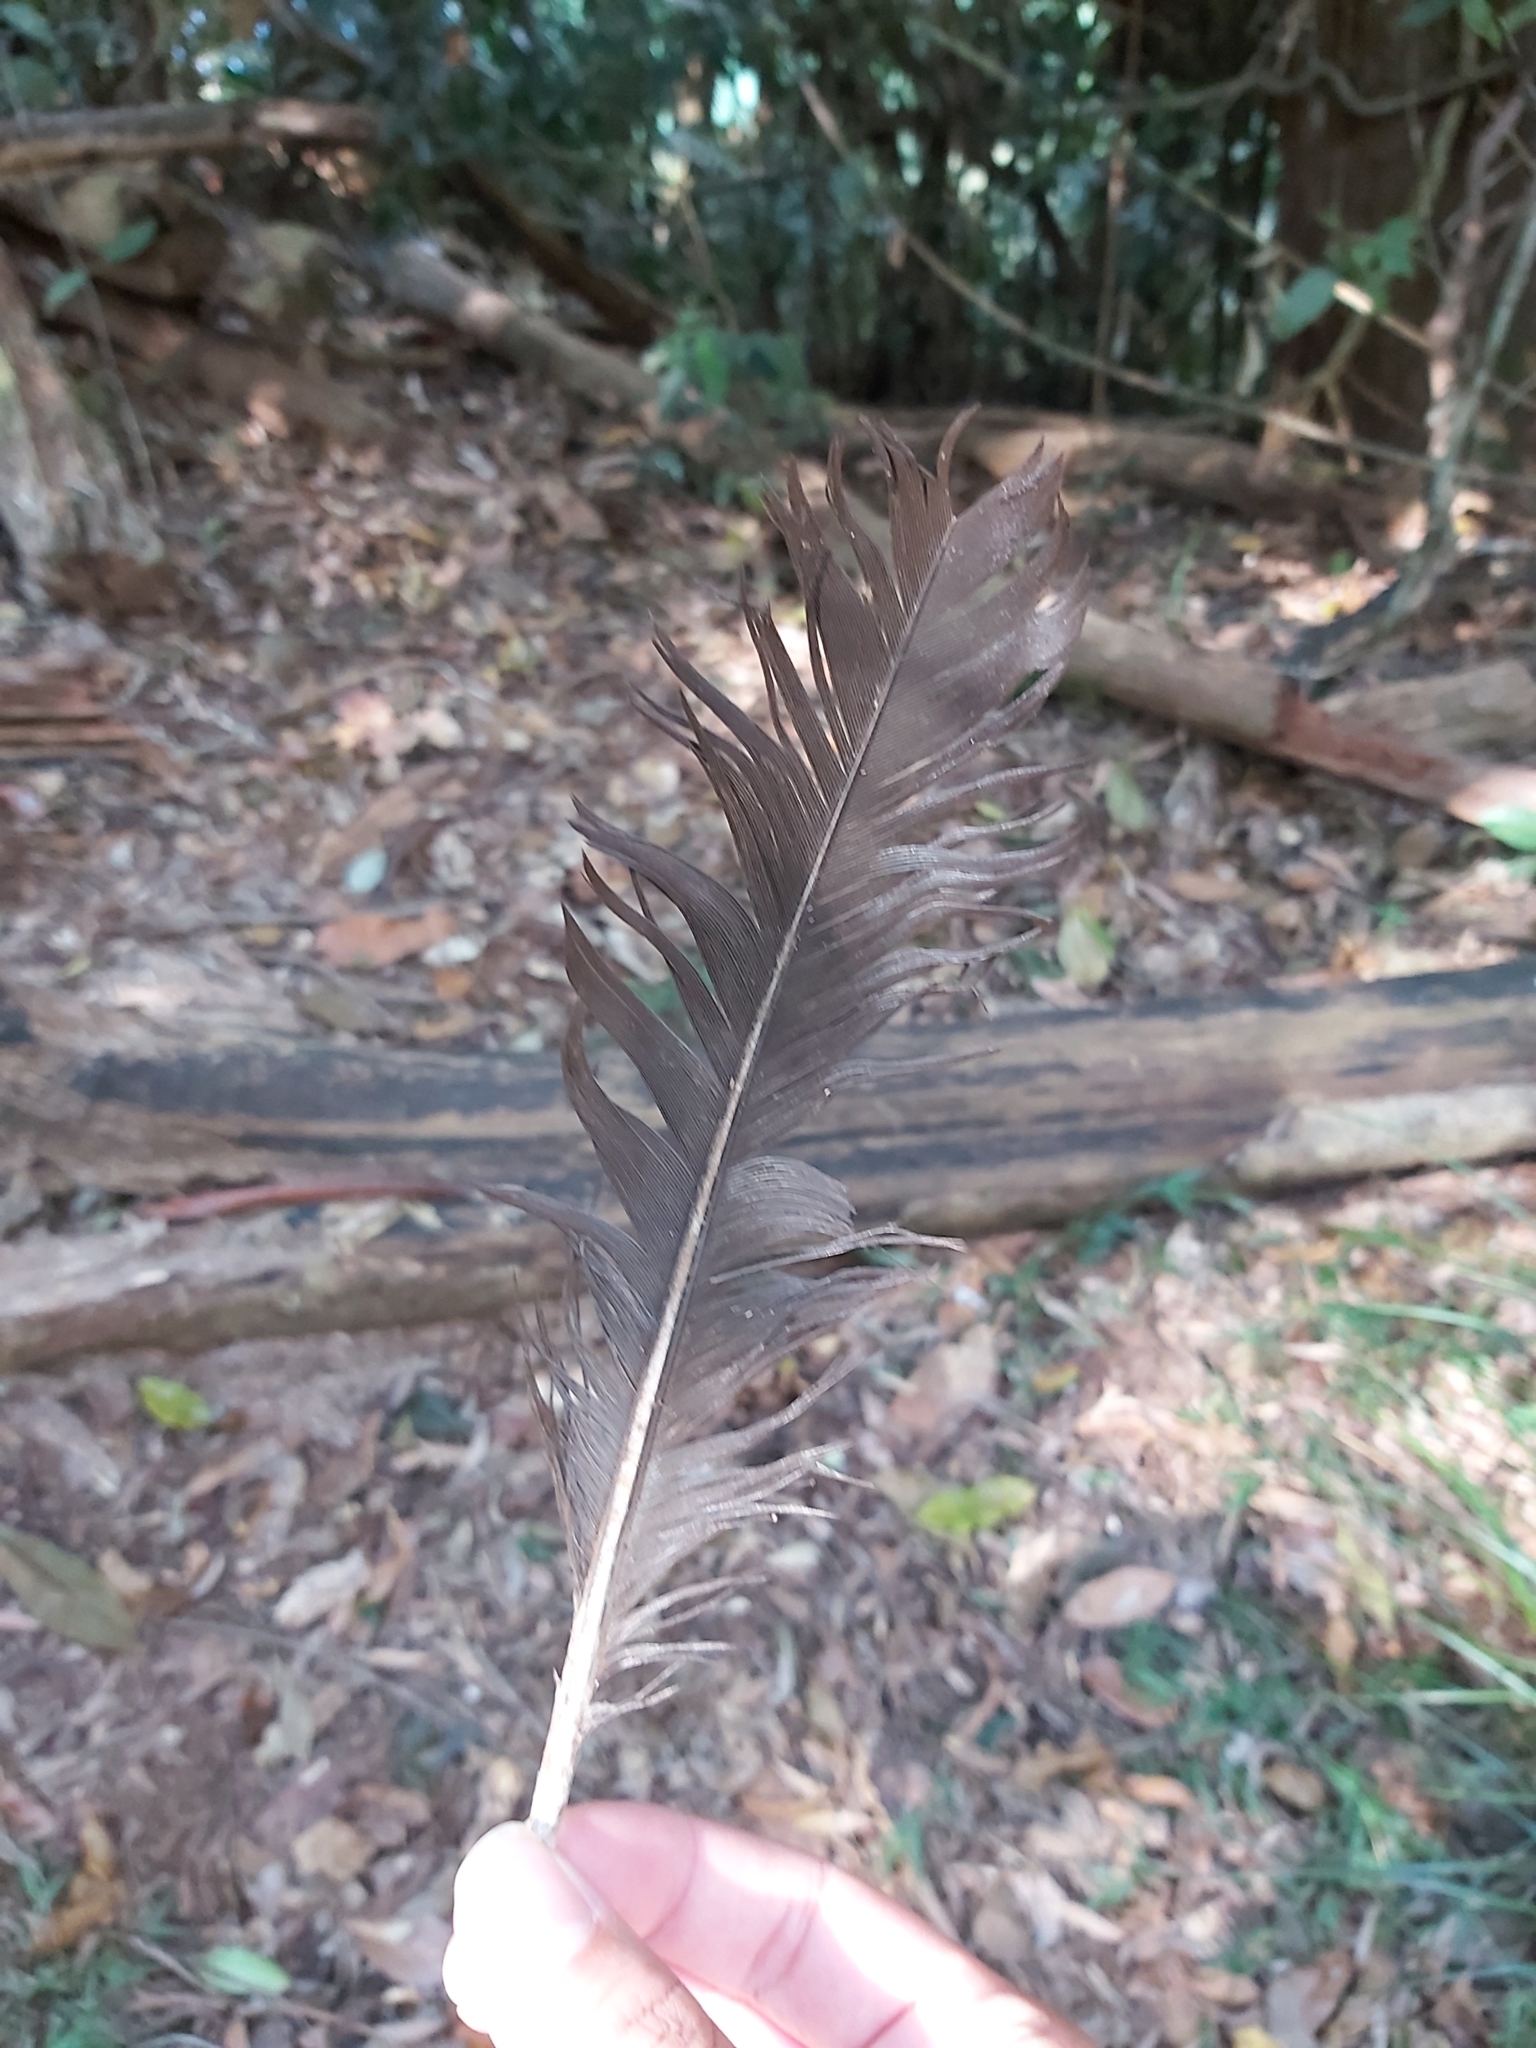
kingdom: Animalia
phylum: Chordata
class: Aves
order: Galliformes
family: Megapodiidae
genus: Alectura
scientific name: Alectura lathami
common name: Australian brushturkey
